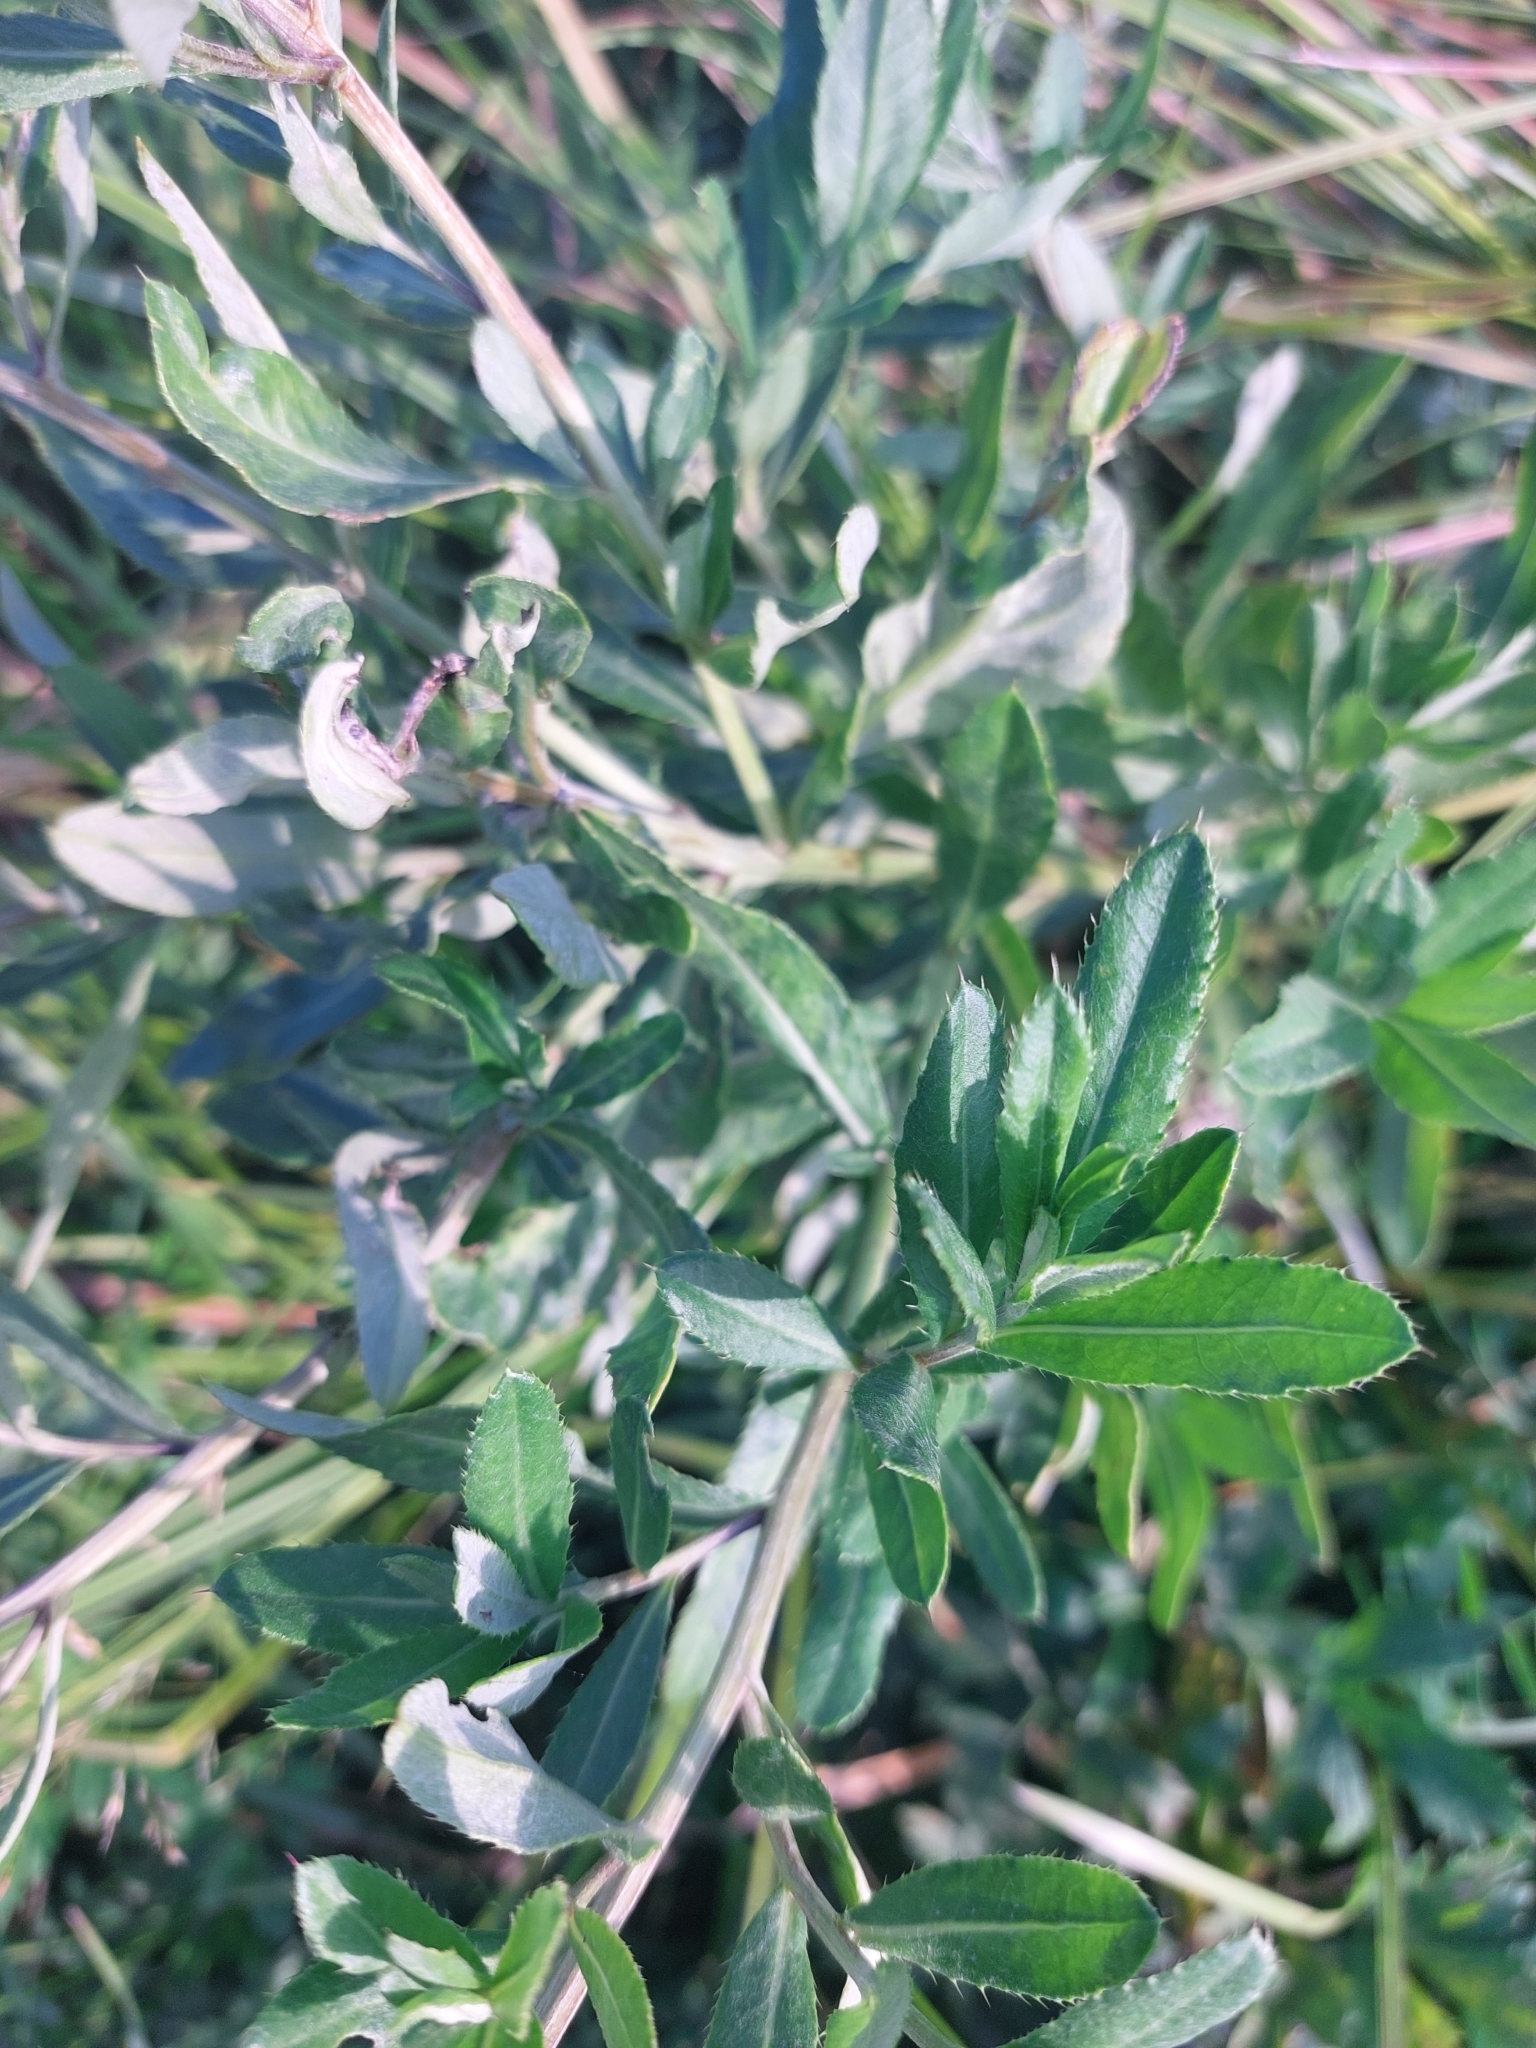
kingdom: Plantae
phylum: Tracheophyta
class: Magnoliopsida
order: Asterales
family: Asteraceae
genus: Cirsium
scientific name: Cirsium arvense
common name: Creeping thistle
